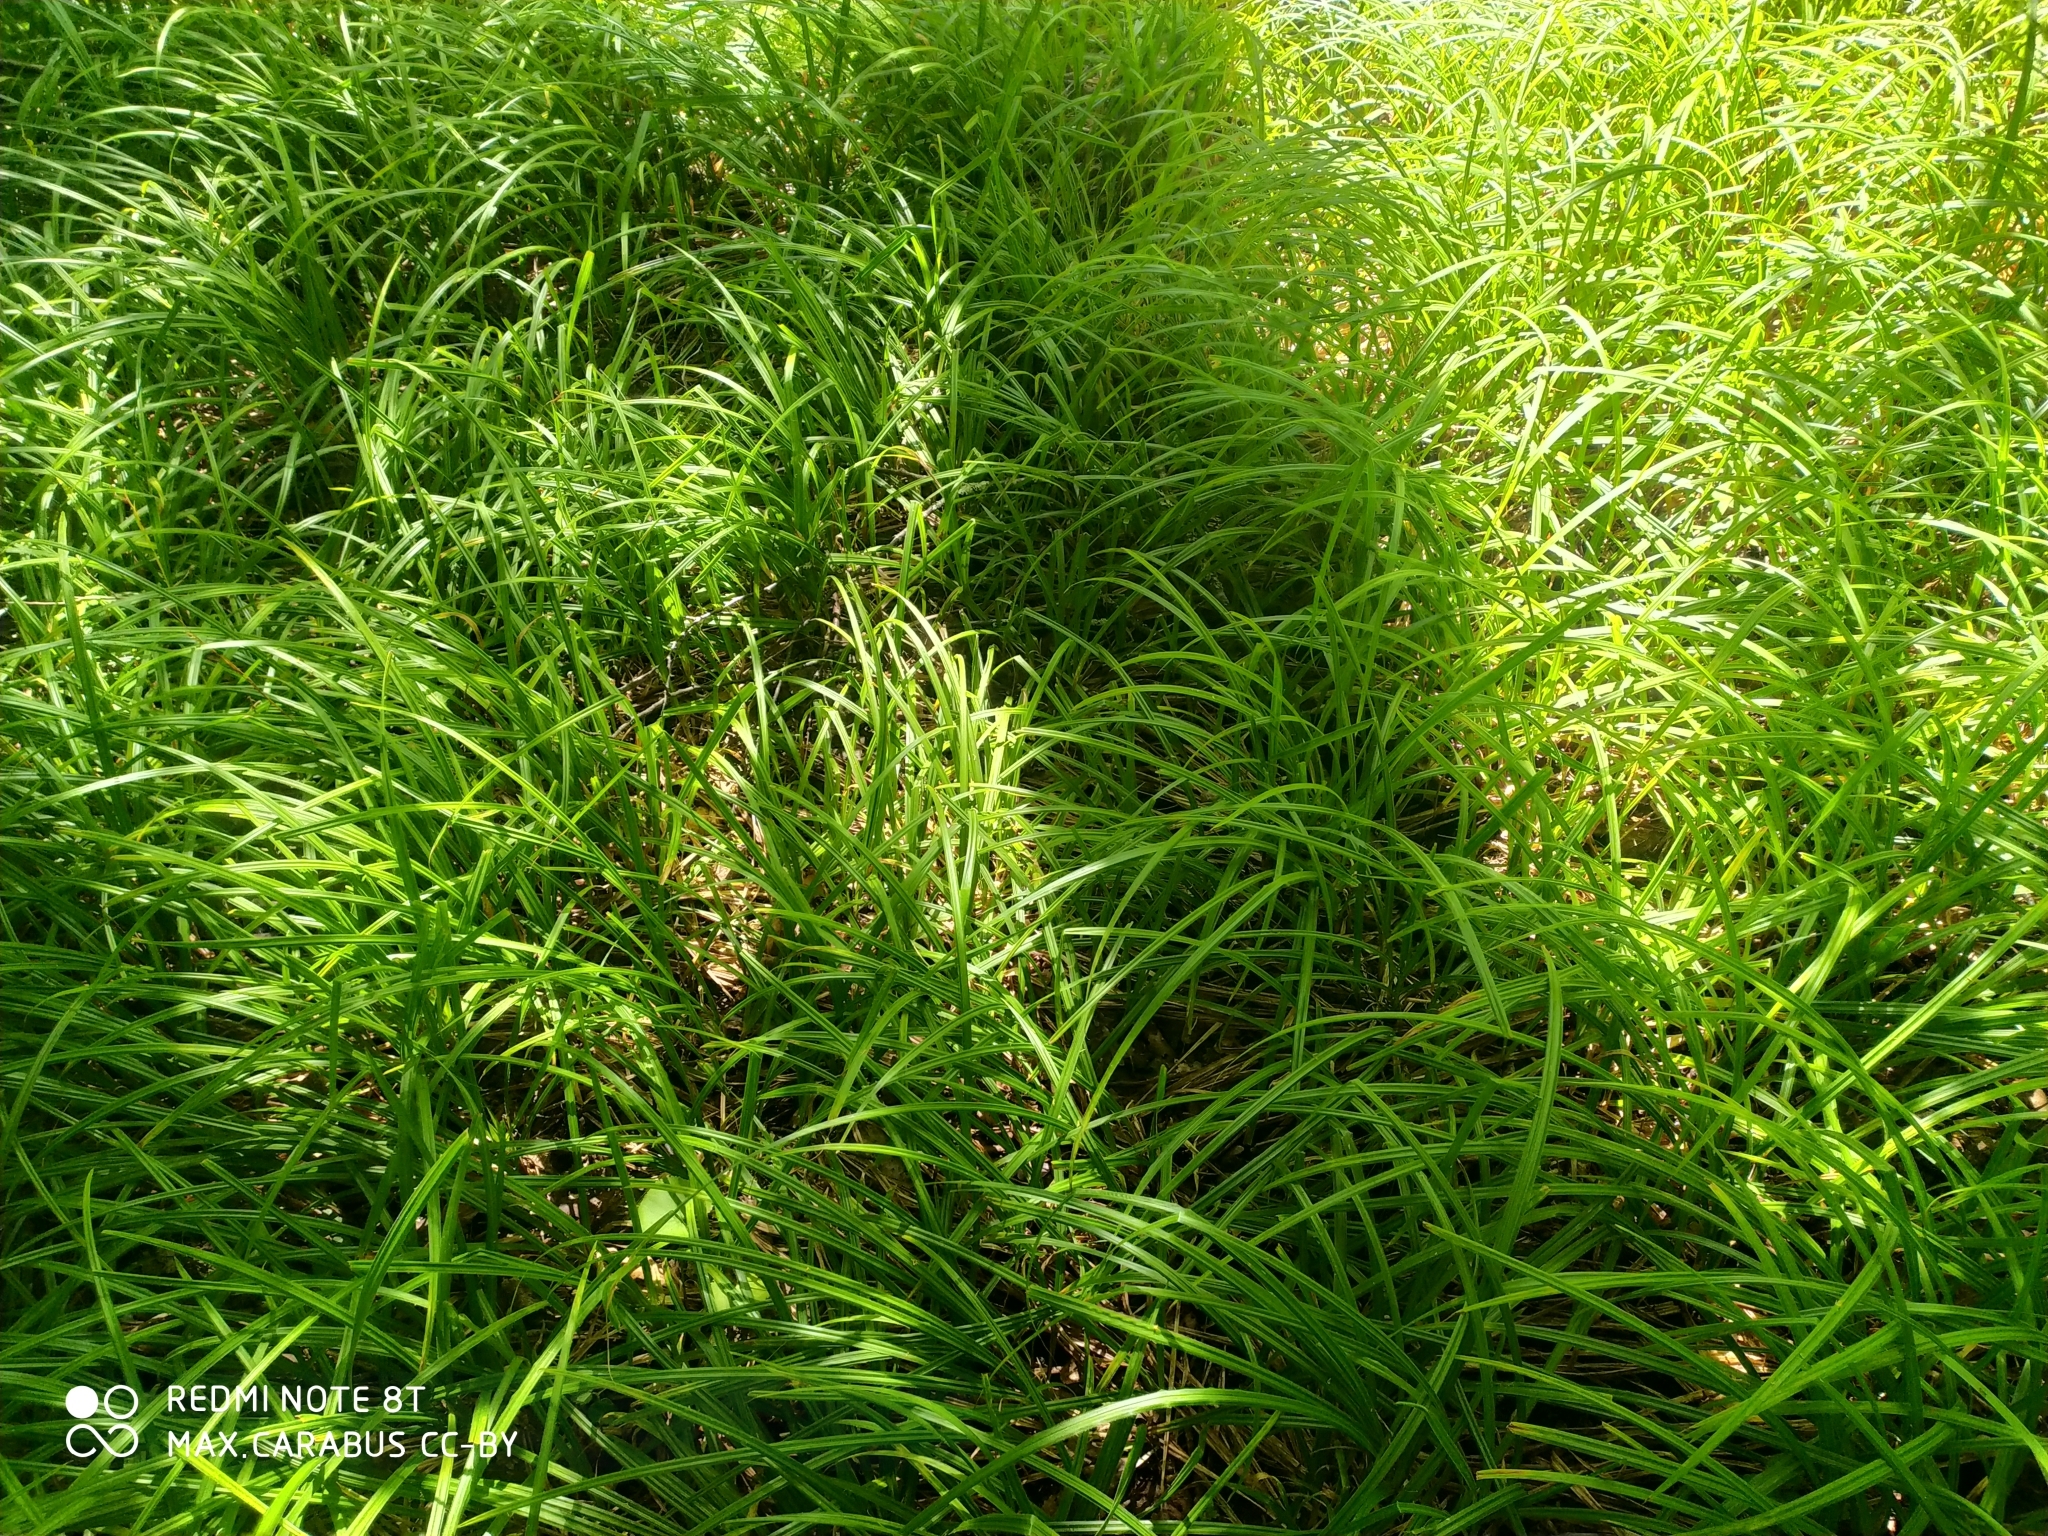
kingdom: Plantae
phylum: Tracheophyta
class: Liliopsida
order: Poales
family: Cyperaceae
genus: Carex
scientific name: Carex pilosa
